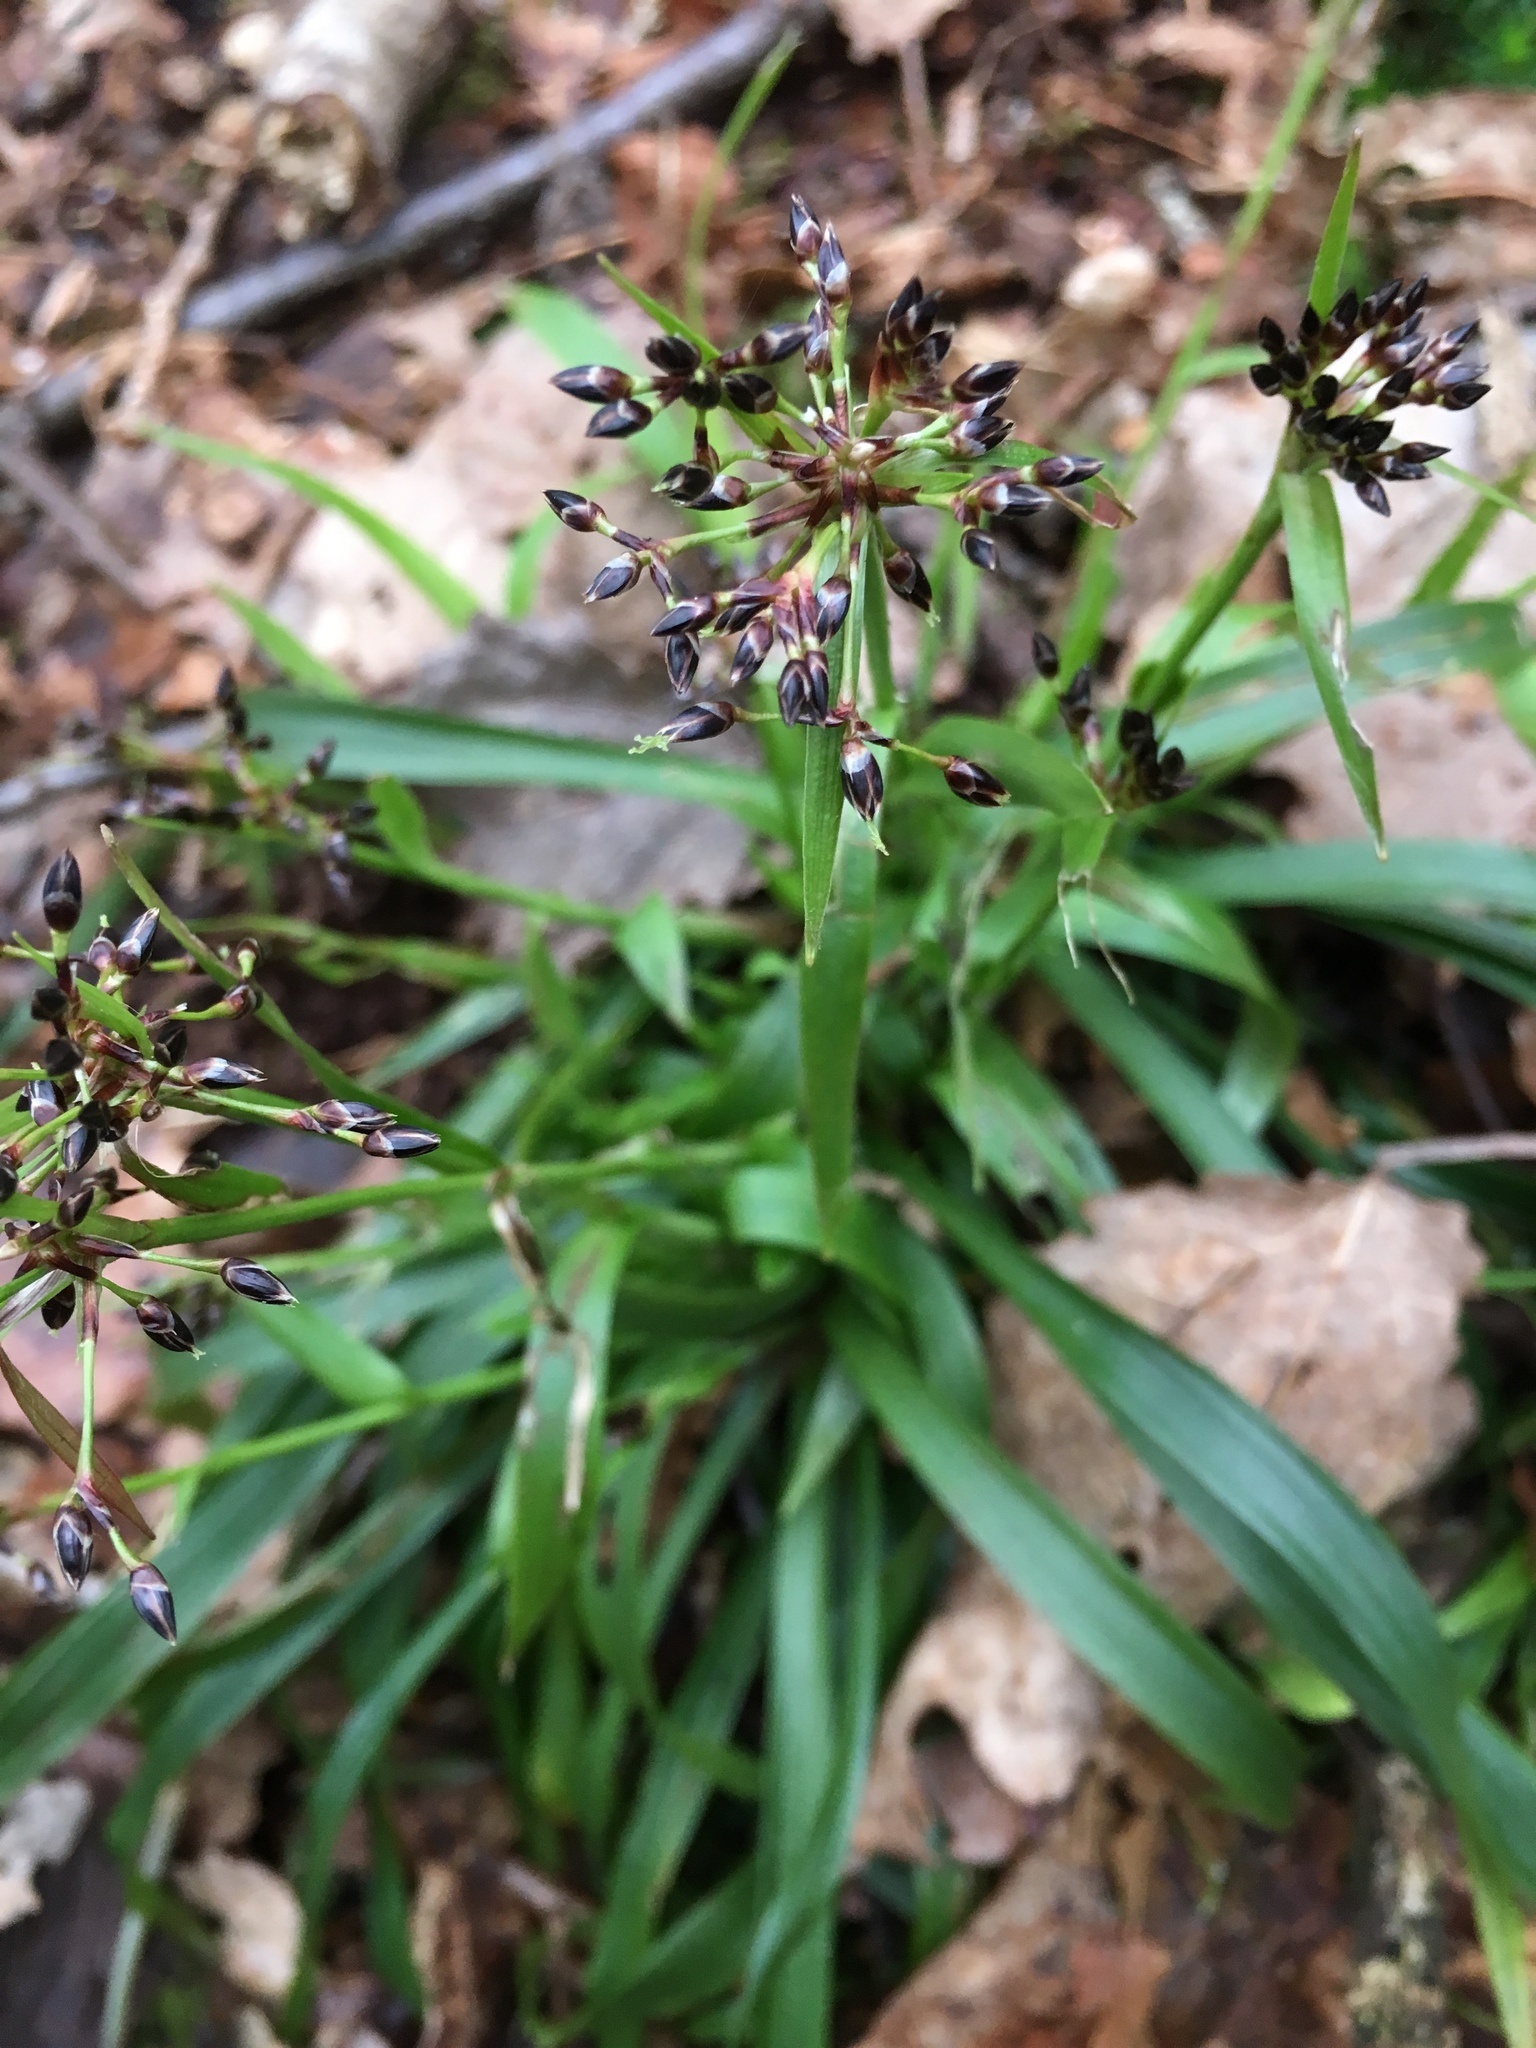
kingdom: Plantae
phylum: Tracheophyta
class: Liliopsida
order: Poales
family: Juncaceae
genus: Luzula
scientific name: Luzula pilosa
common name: Hairy wood-rush
